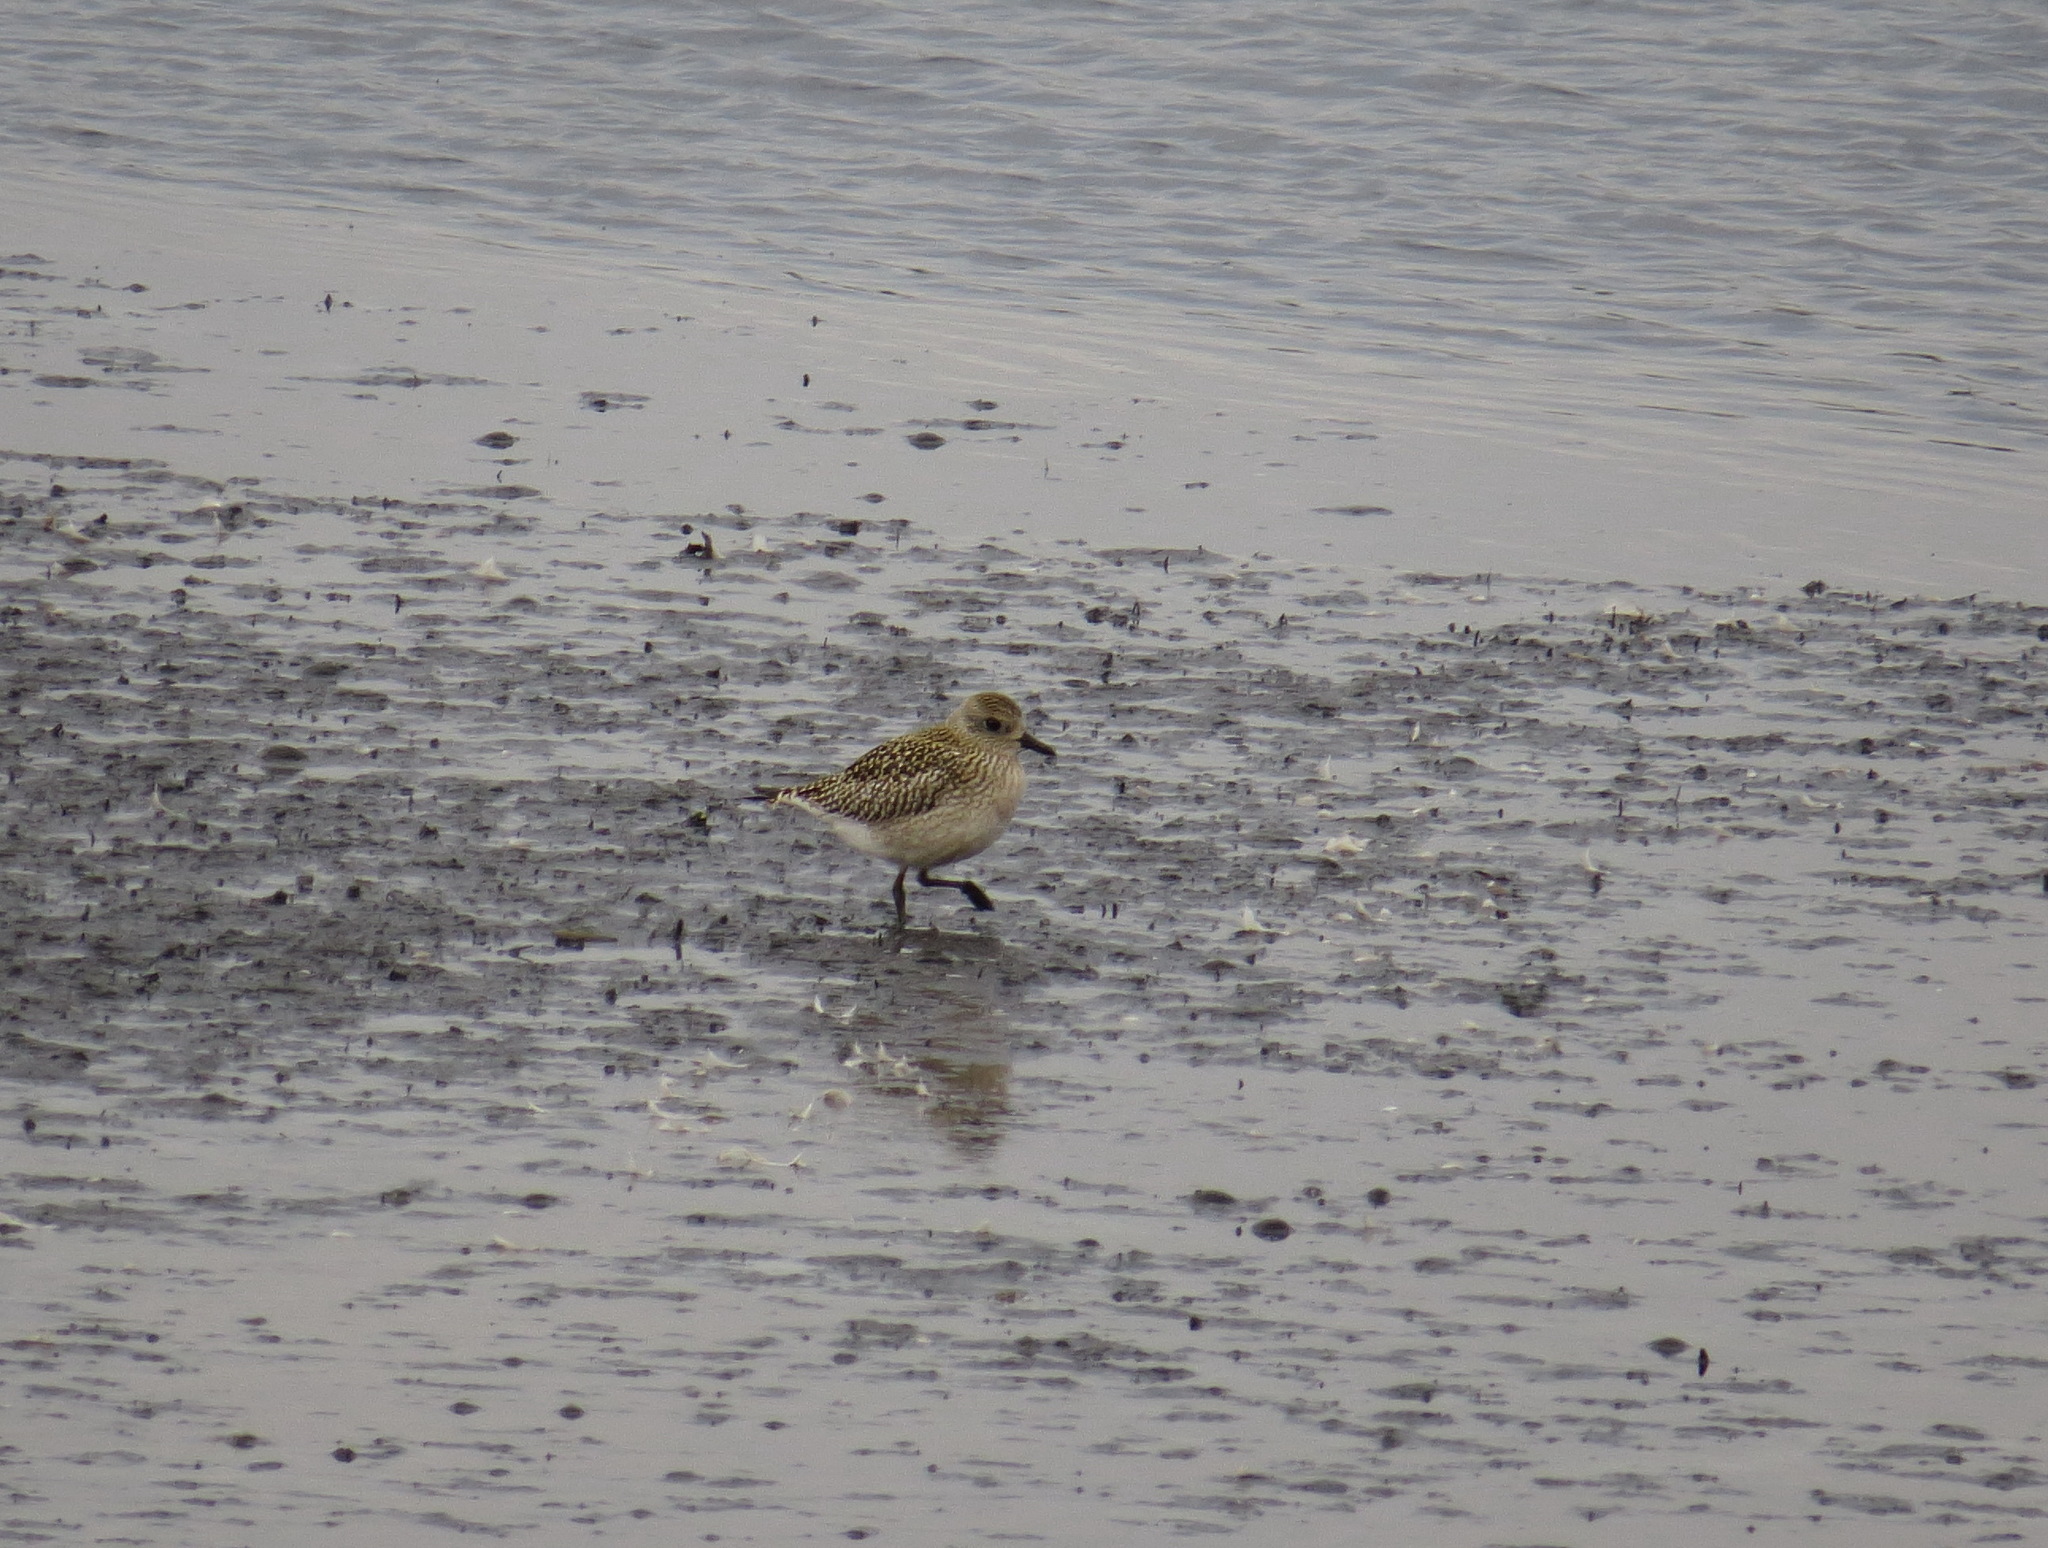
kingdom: Animalia
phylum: Chordata
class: Aves
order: Charadriiformes
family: Charadriidae
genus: Pluvialis
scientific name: Pluvialis squatarola
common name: Grey plover
